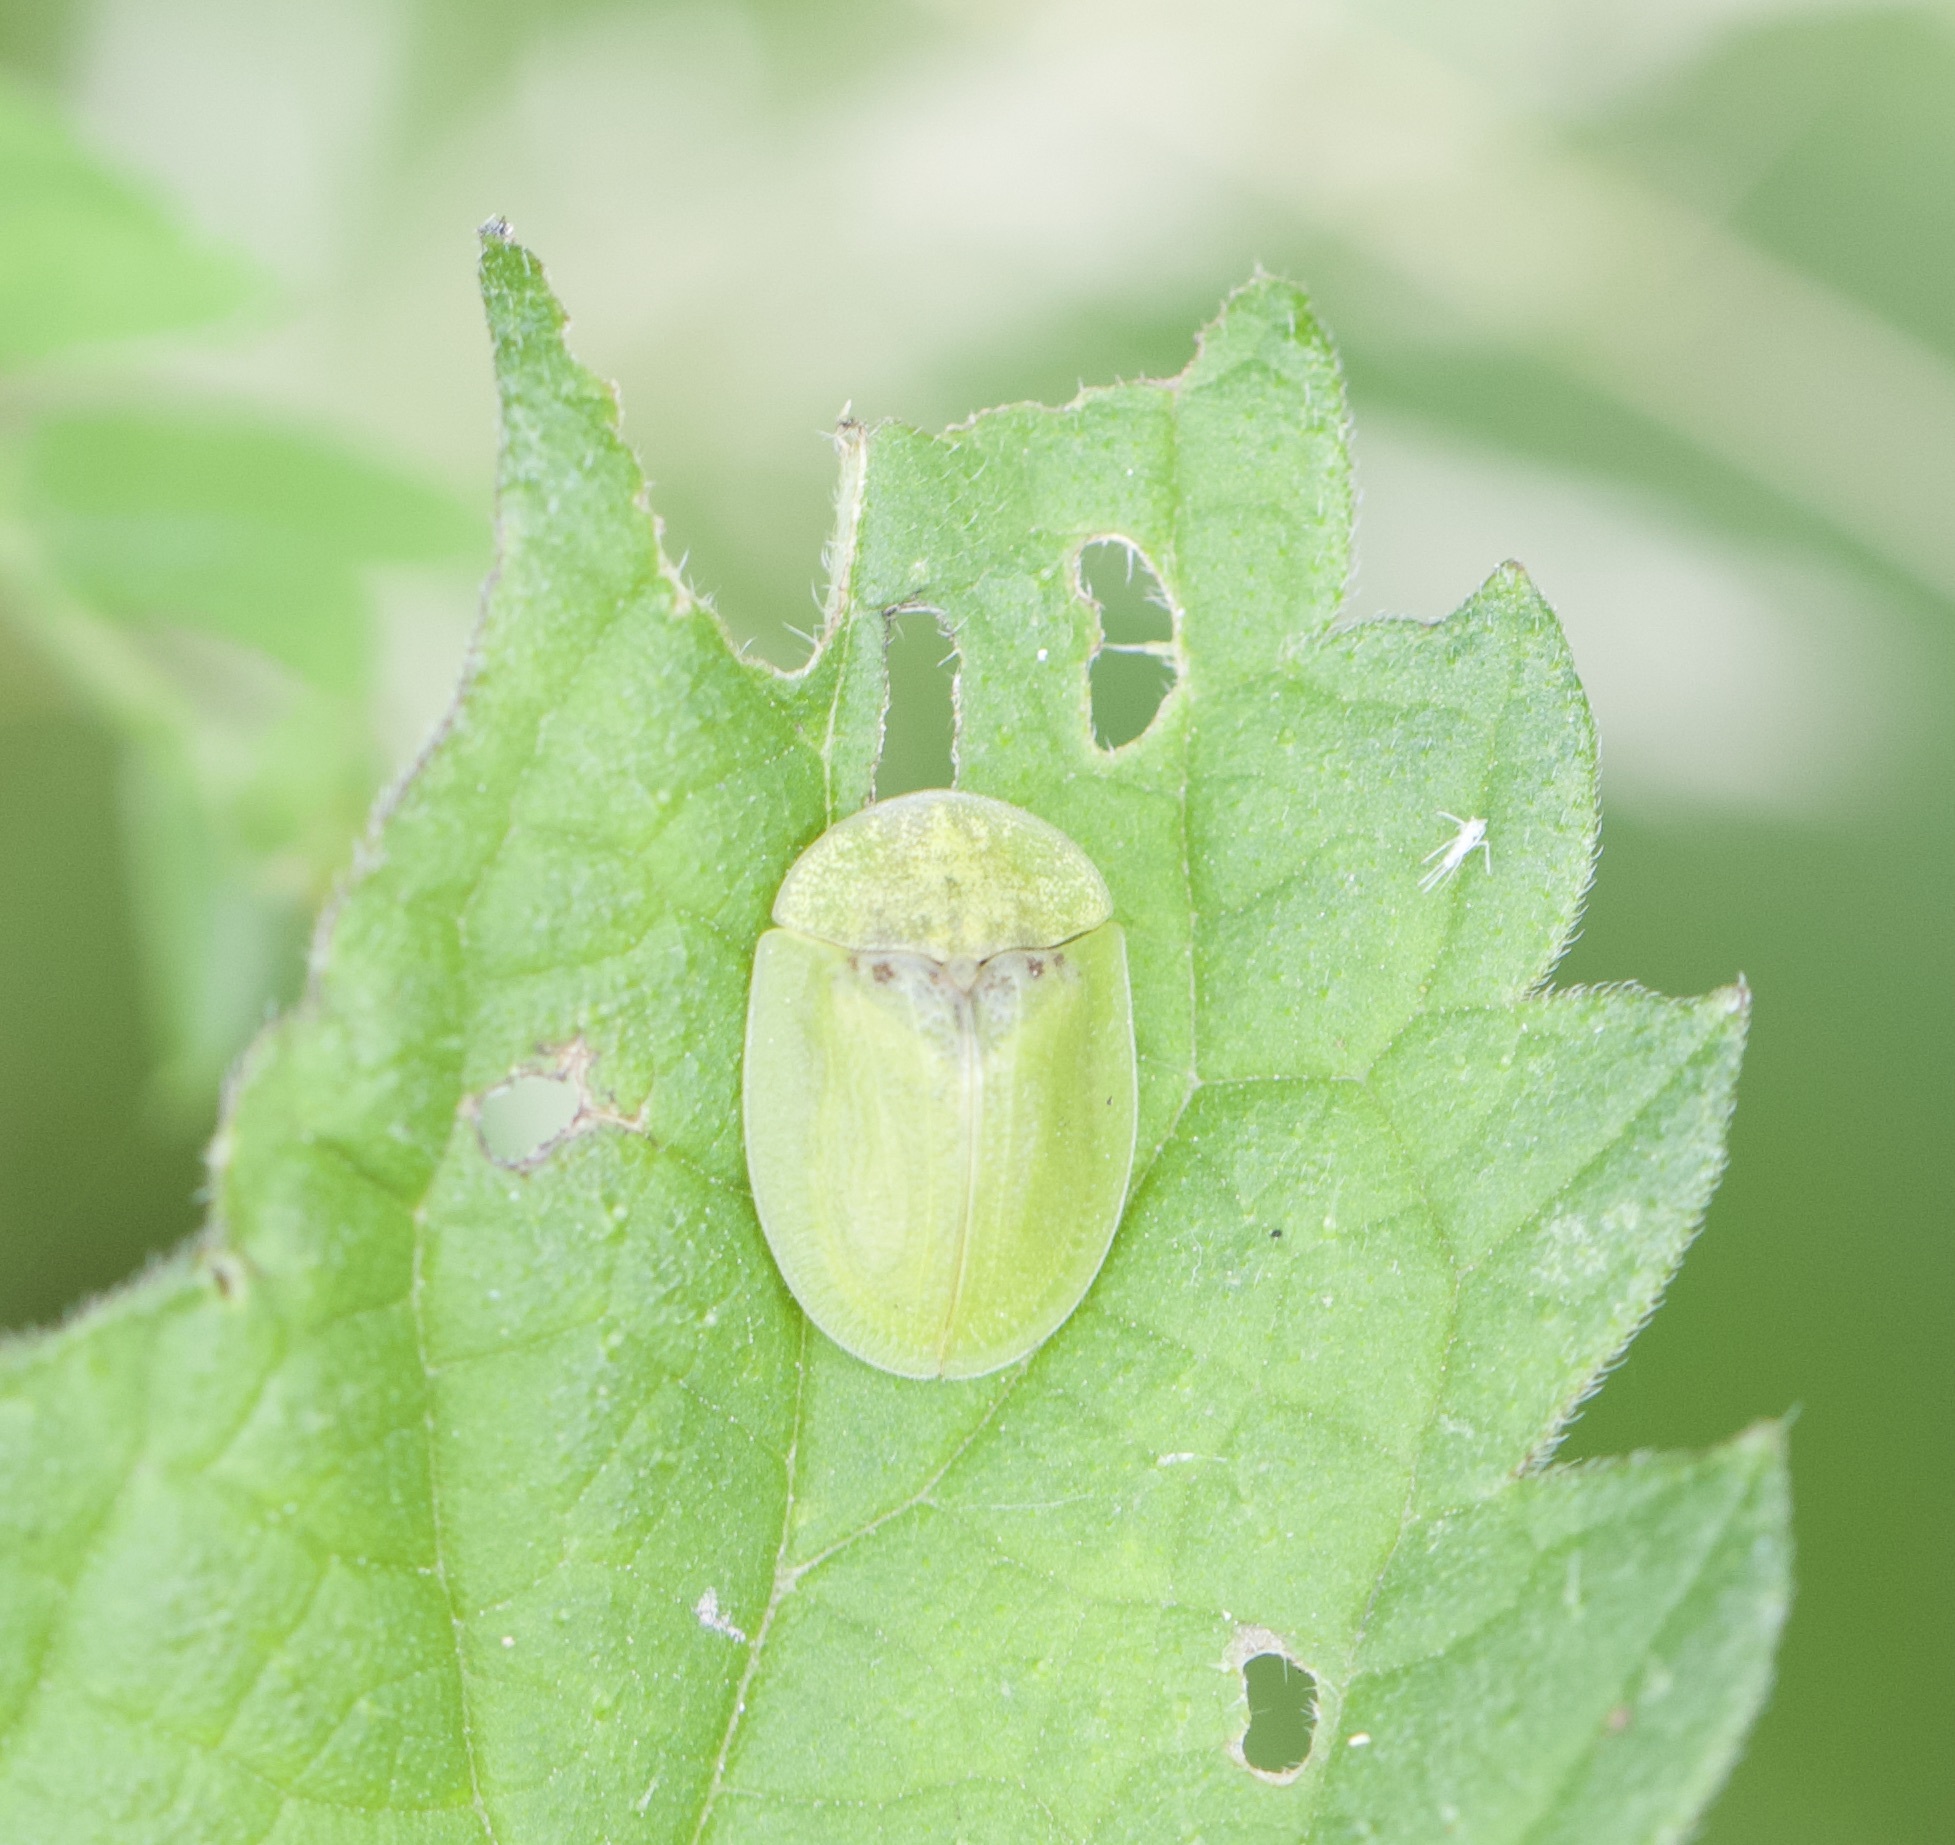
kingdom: Animalia
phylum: Arthropoda
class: Insecta
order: Coleoptera
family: Chrysomelidae
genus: Cassida
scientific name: Cassida rubiginosa
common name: Thistle tortoise beetle
